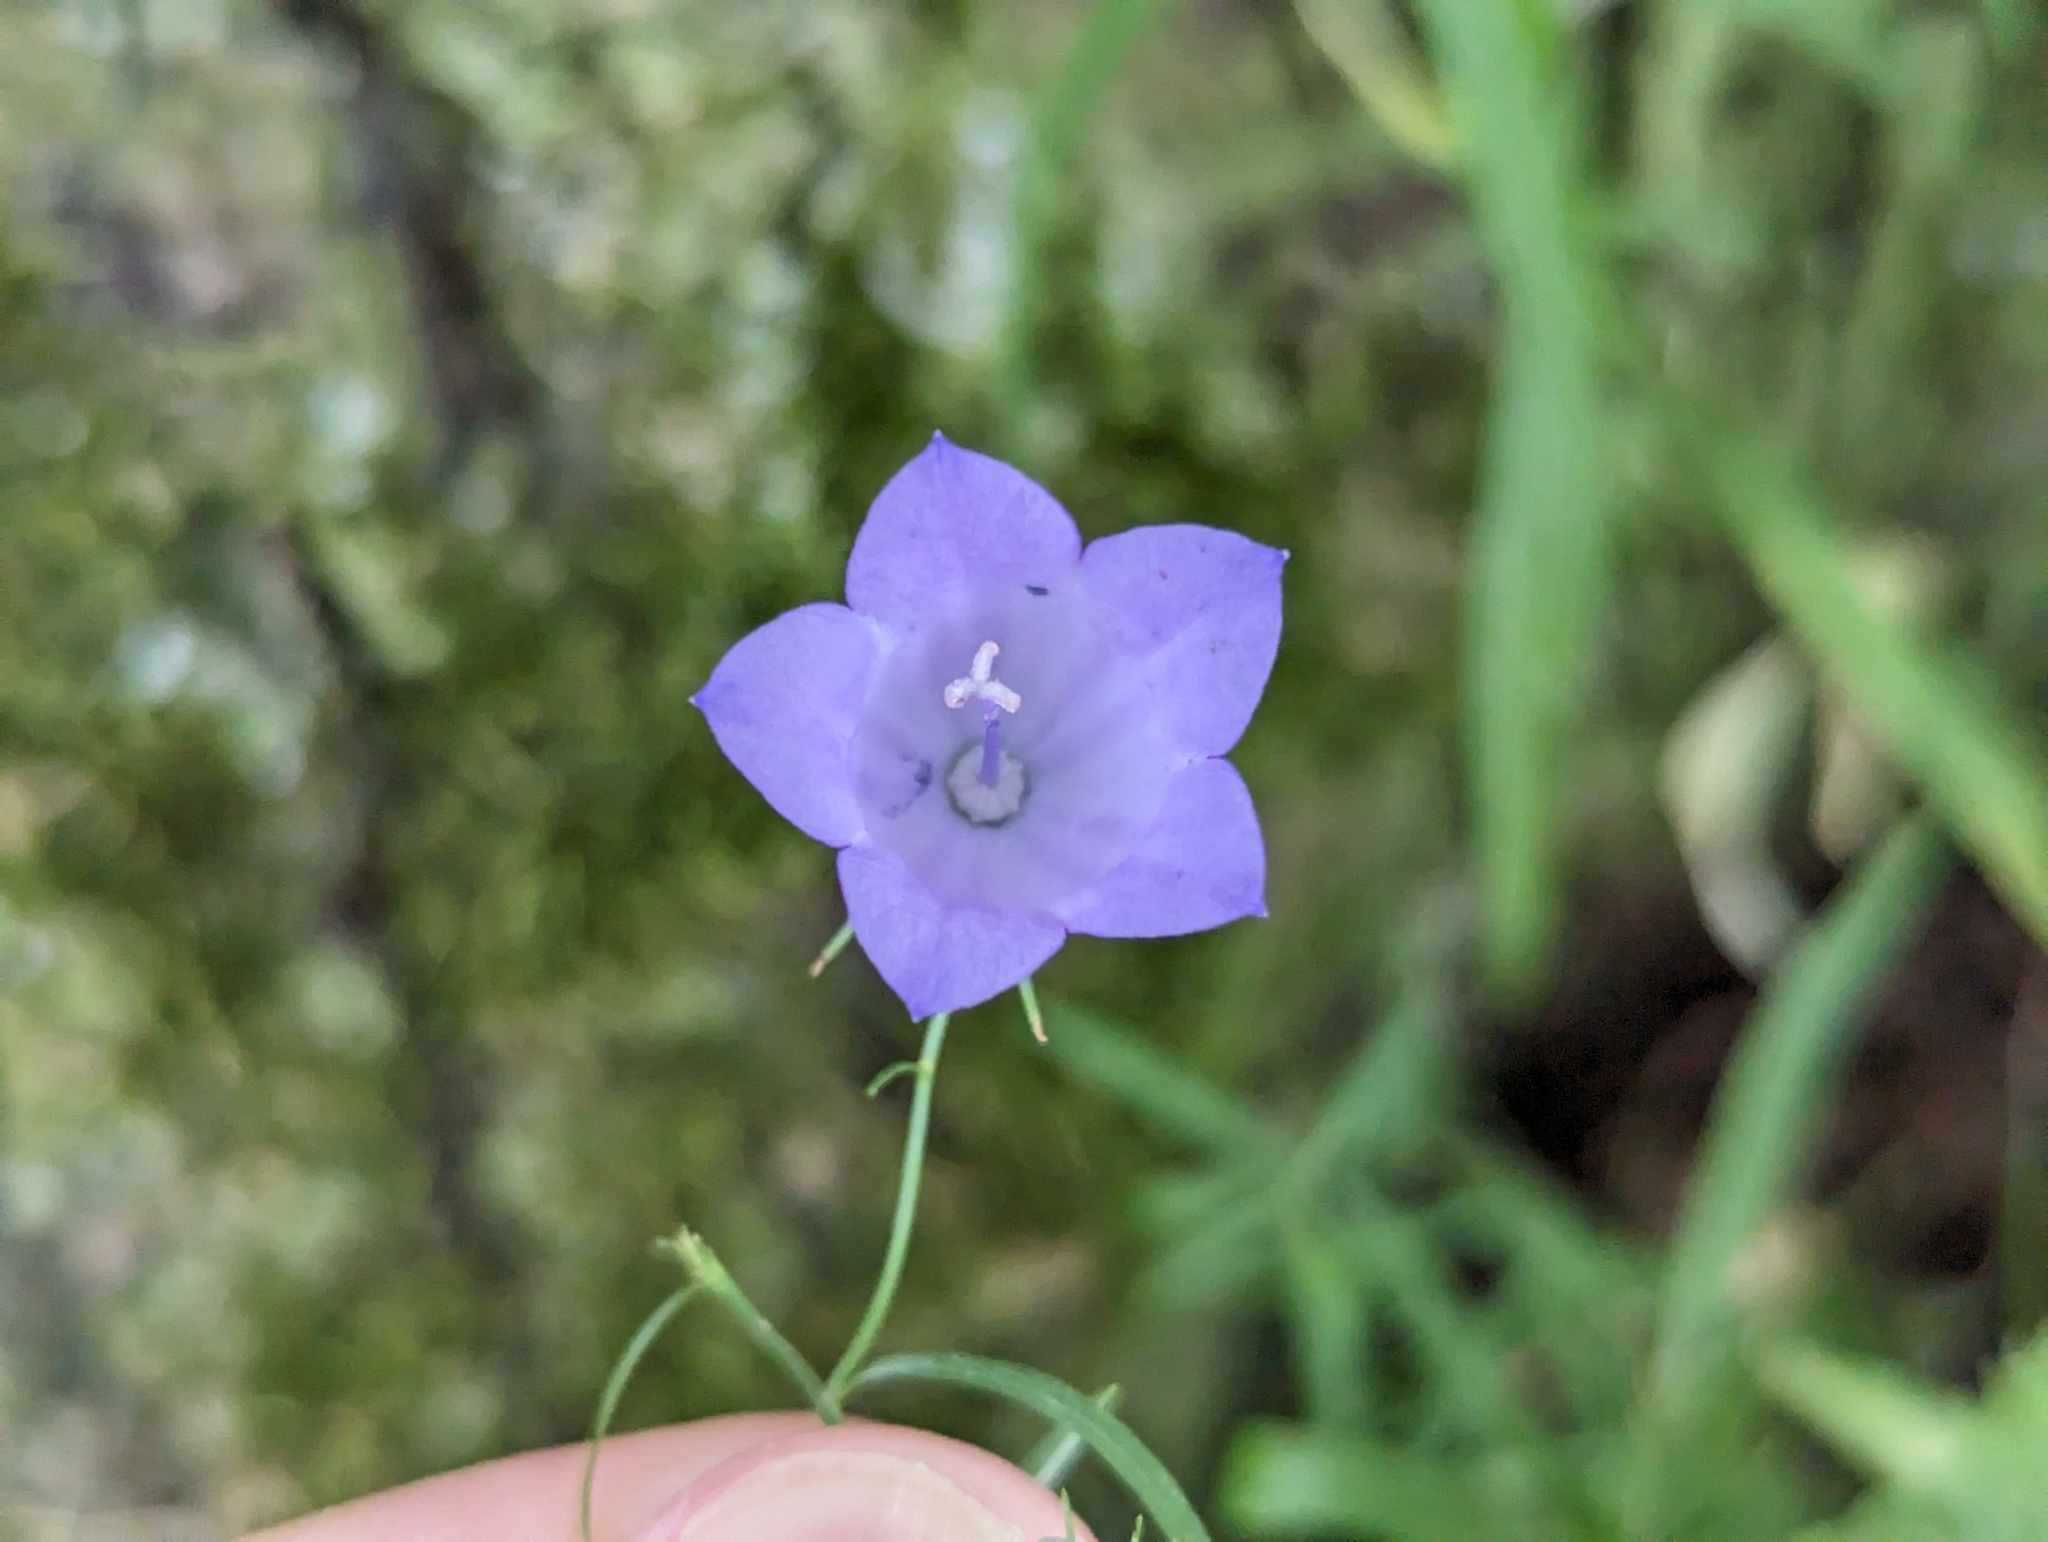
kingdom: Plantae
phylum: Tracheophyta
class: Magnoliopsida
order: Asterales
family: Campanulaceae
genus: Campanula
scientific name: Campanula rotundifolia
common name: Harebell
